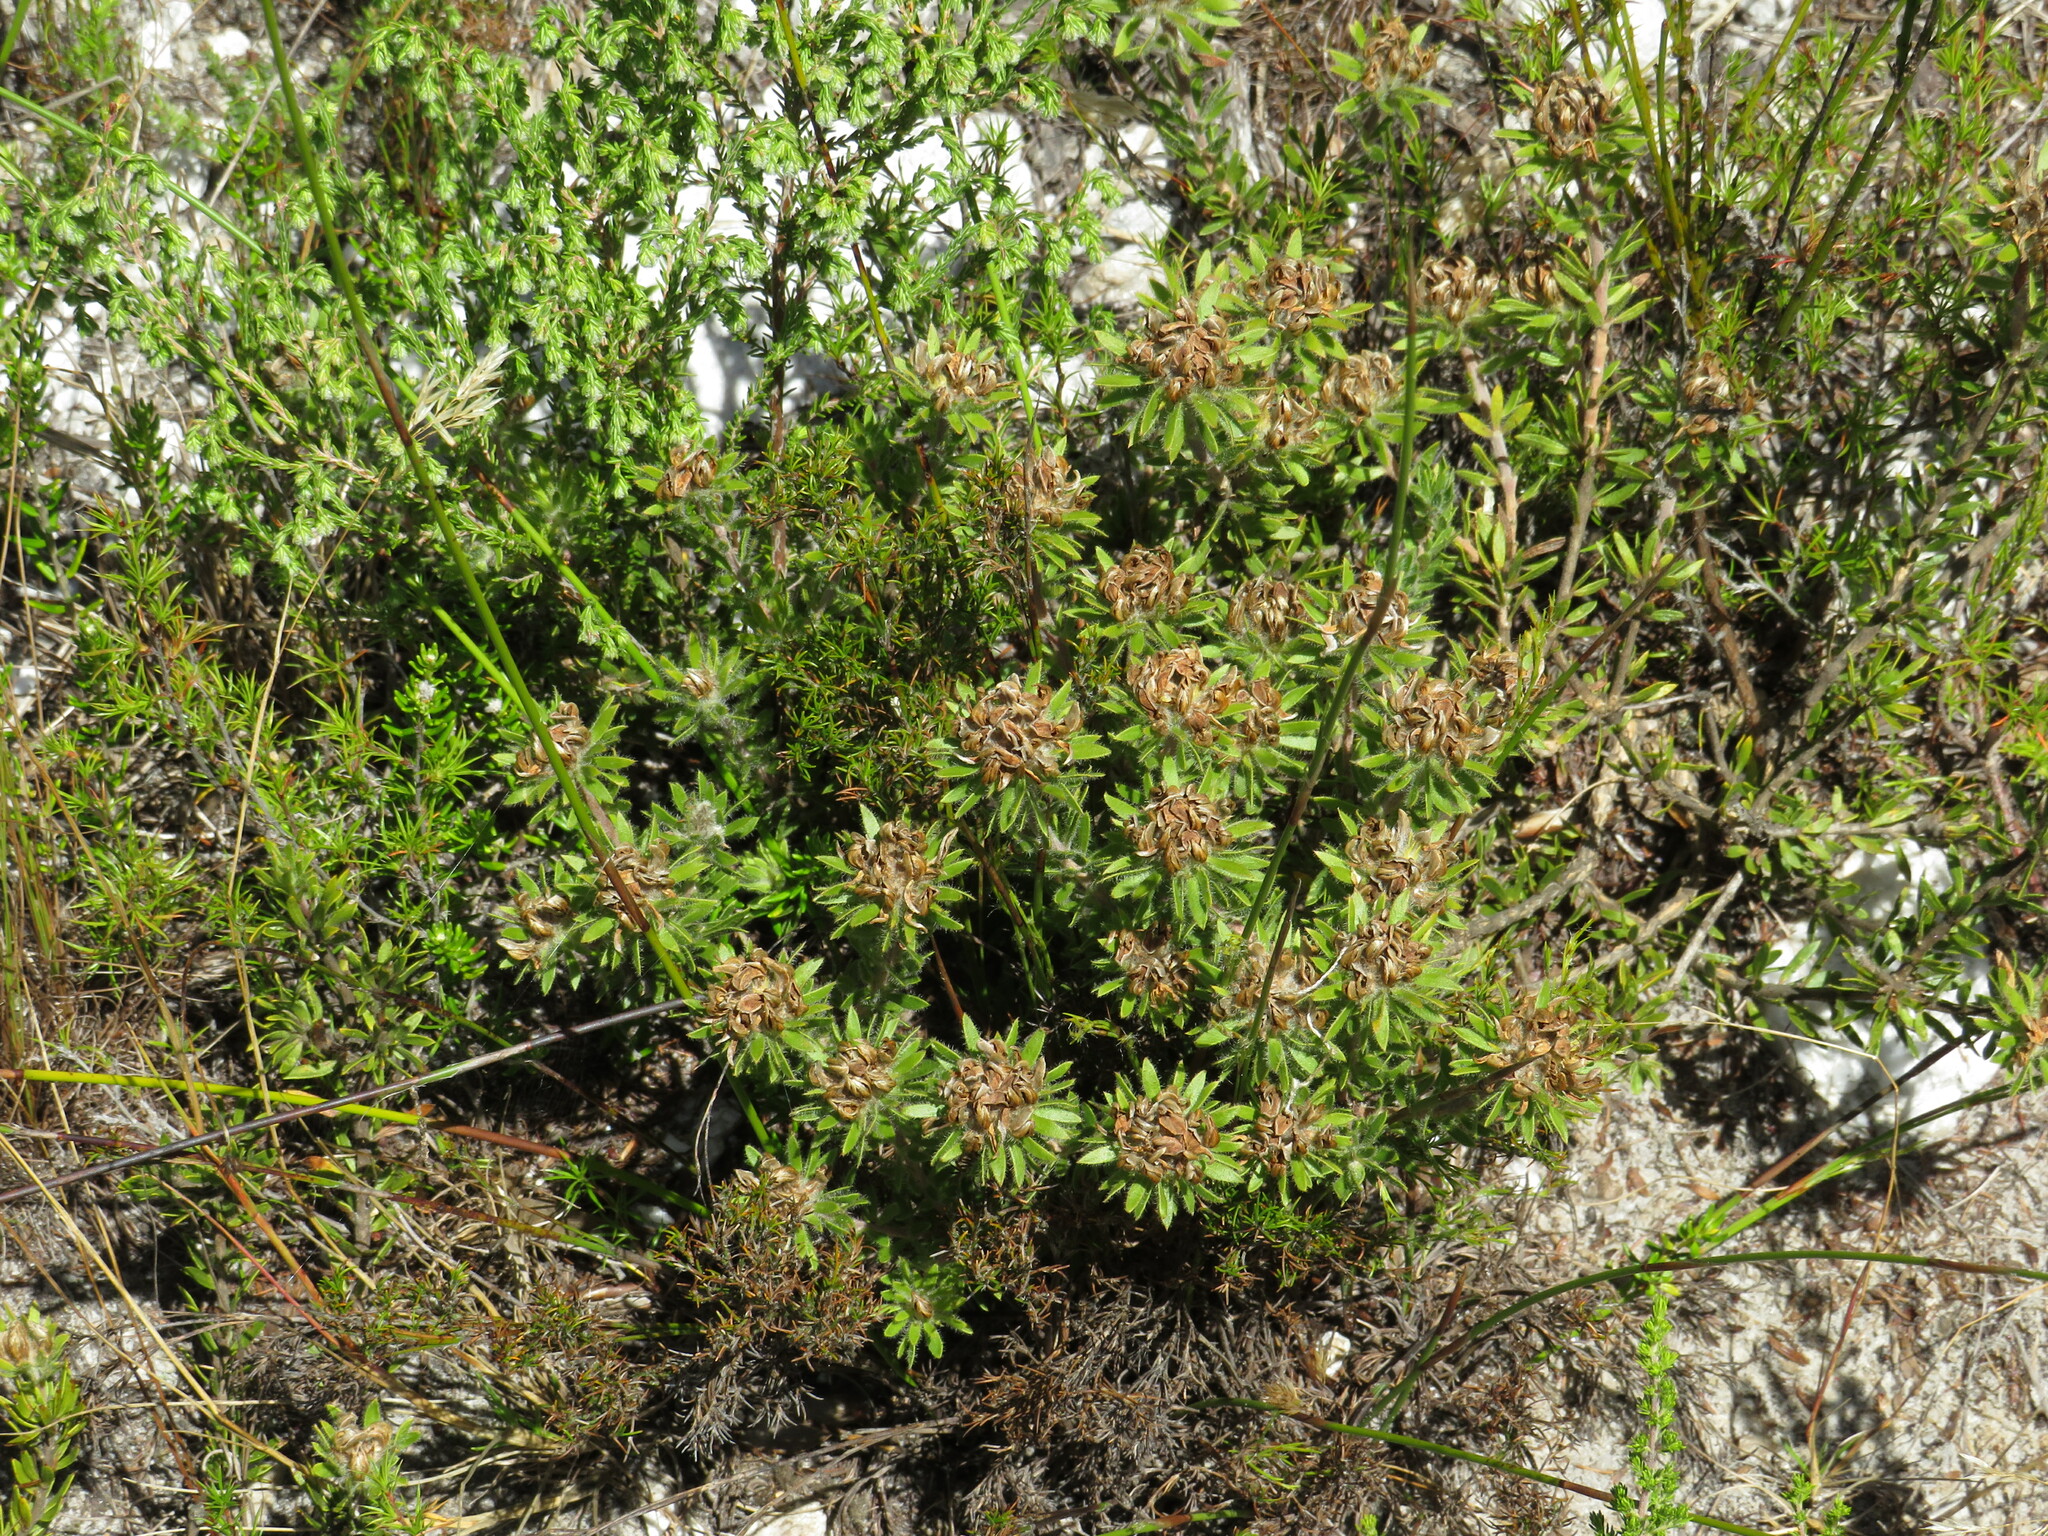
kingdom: Plantae
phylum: Tracheophyta
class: Magnoliopsida
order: Fabales
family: Fabaceae
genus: Aspalathus
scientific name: Aspalathus aspalathoides
